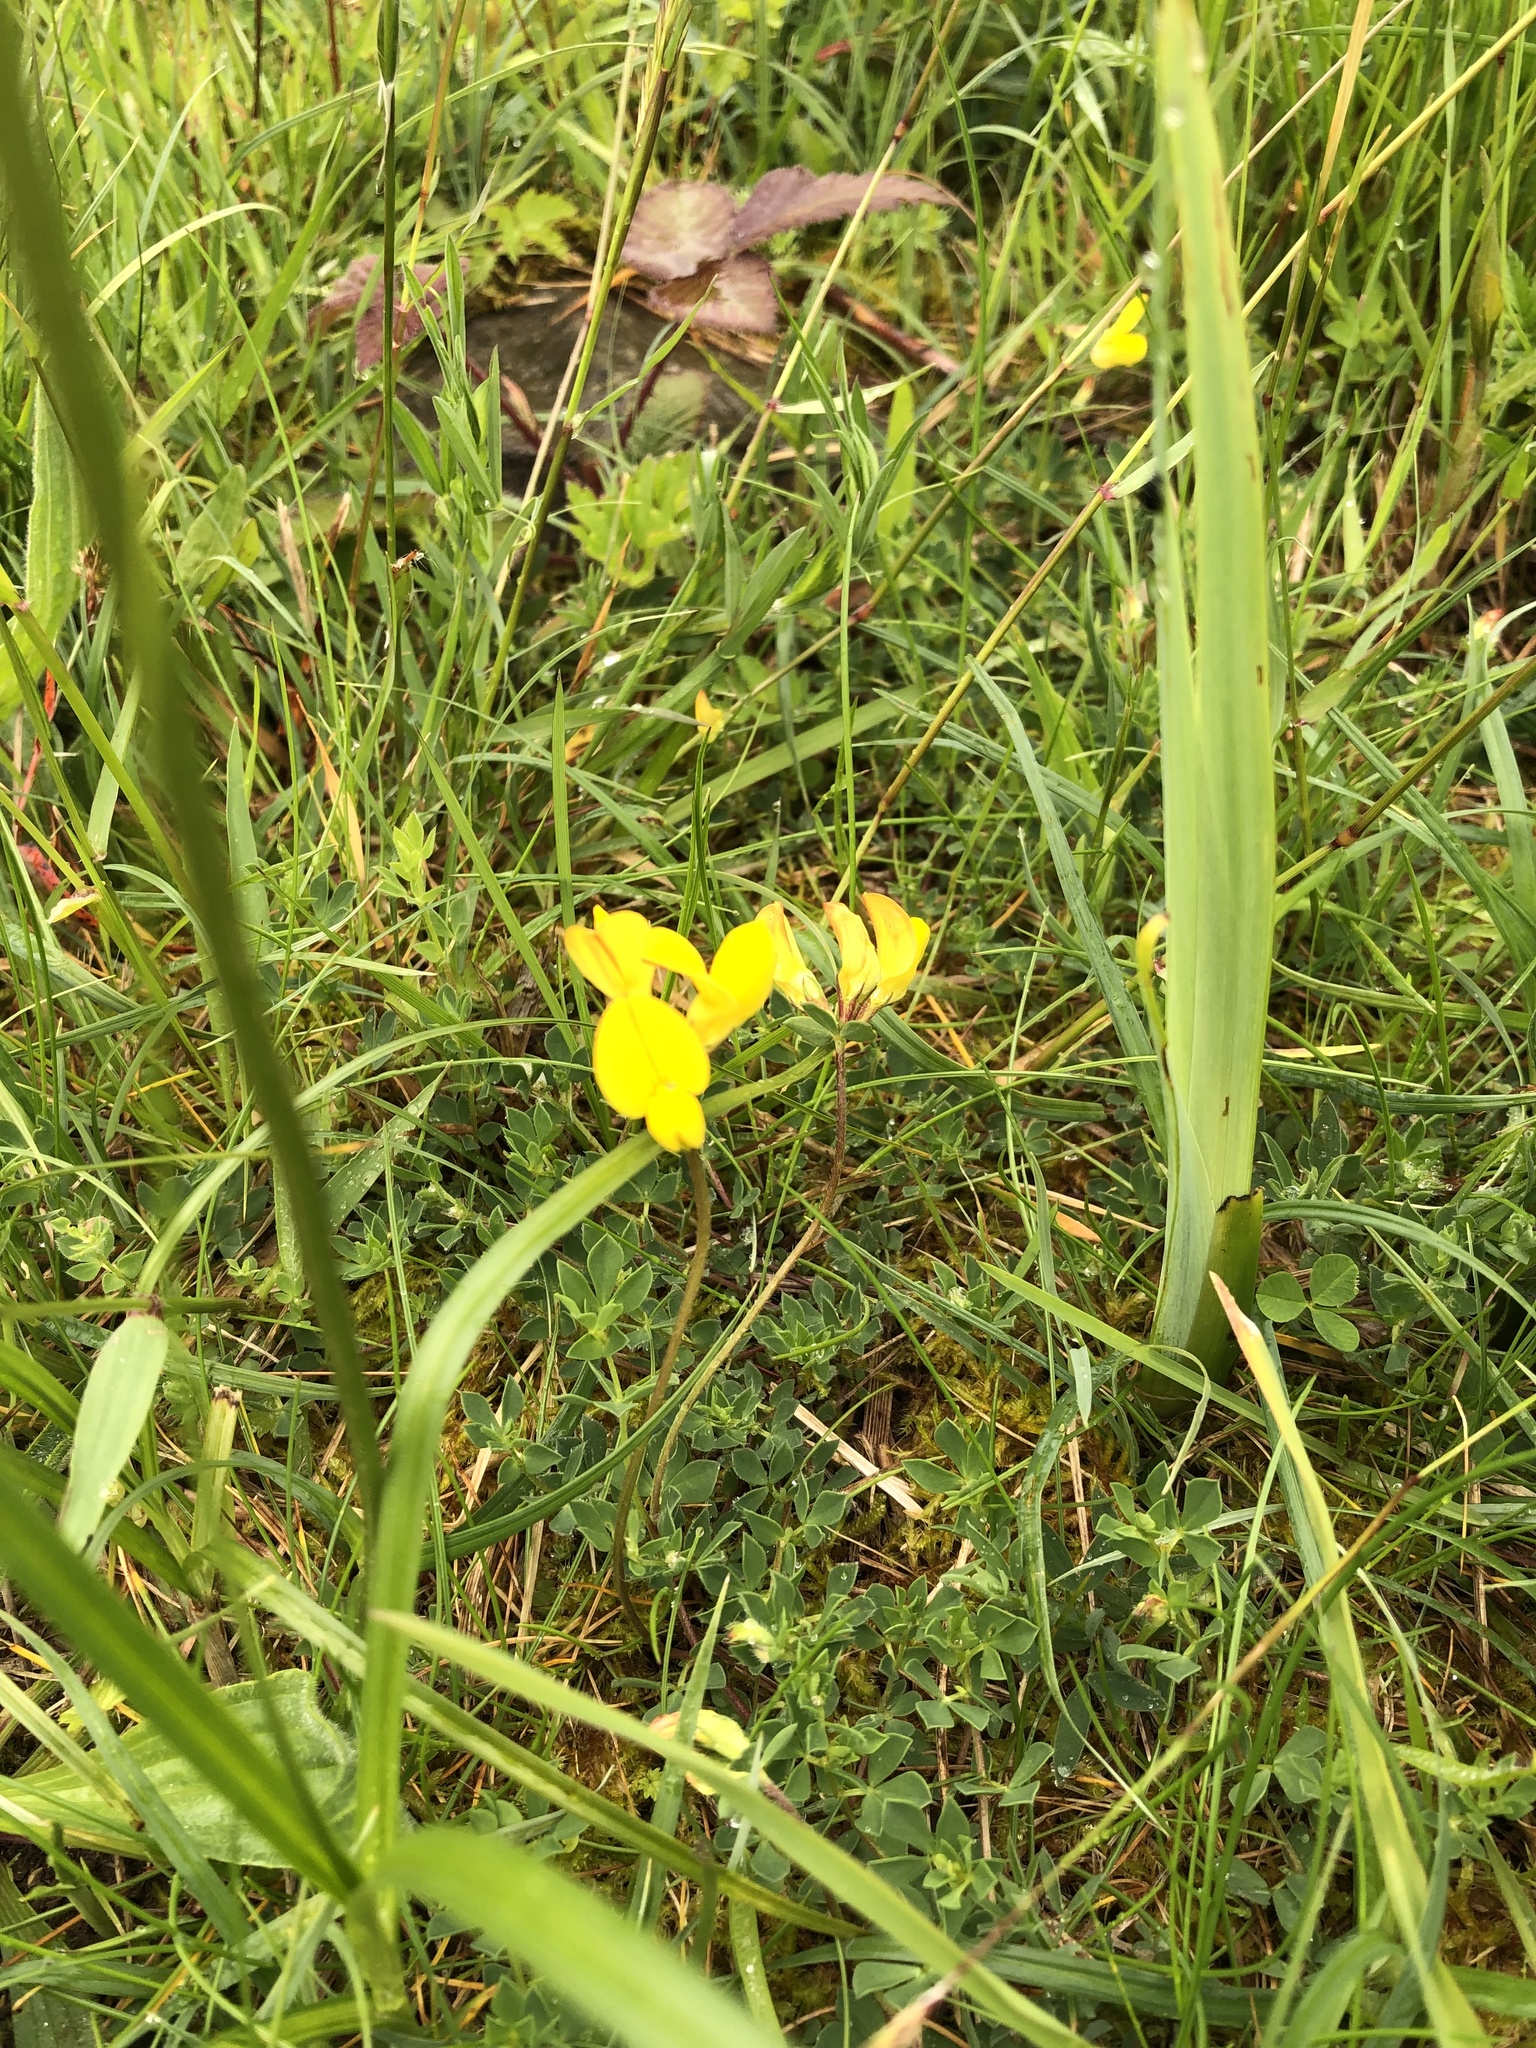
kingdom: Plantae
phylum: Tracheophyta
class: Magnoliopsida
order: Fabales
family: Fabaceae
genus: Lotus
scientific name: Lotus corniculatus
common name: Common bird's-foot-trefoil
